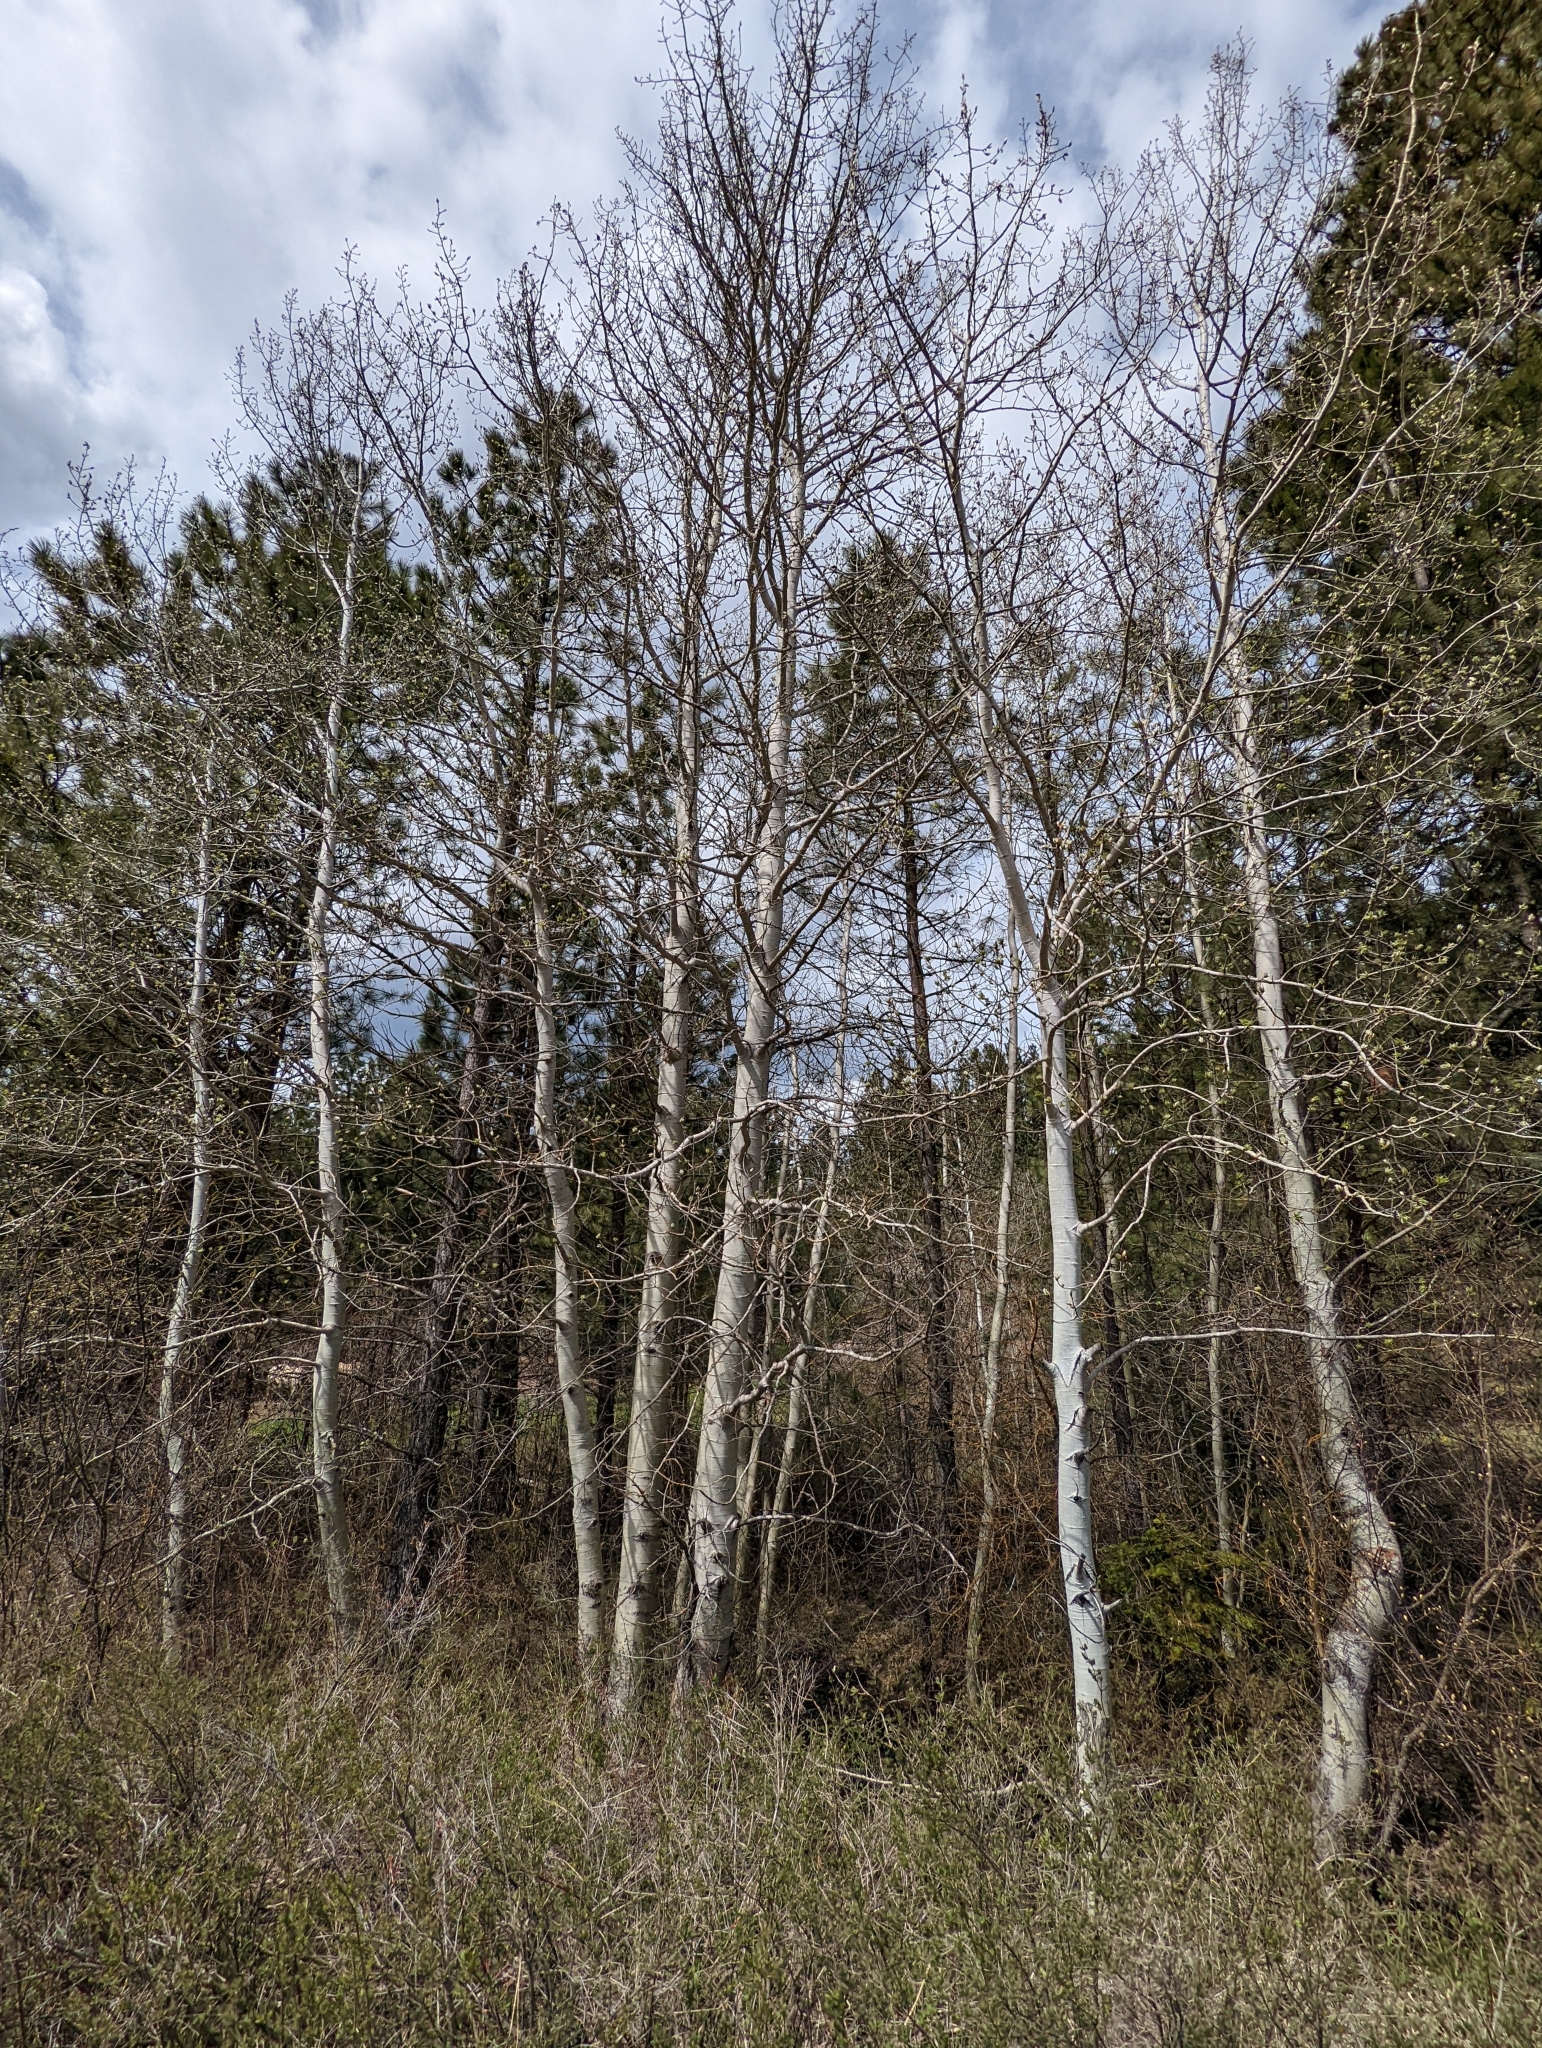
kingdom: Plantae
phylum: Tracheophyta
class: Magnoliopsida
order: Malpighiales
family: Salicaceae
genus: Populus
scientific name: Populus tremuloides
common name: Quaking aspen
